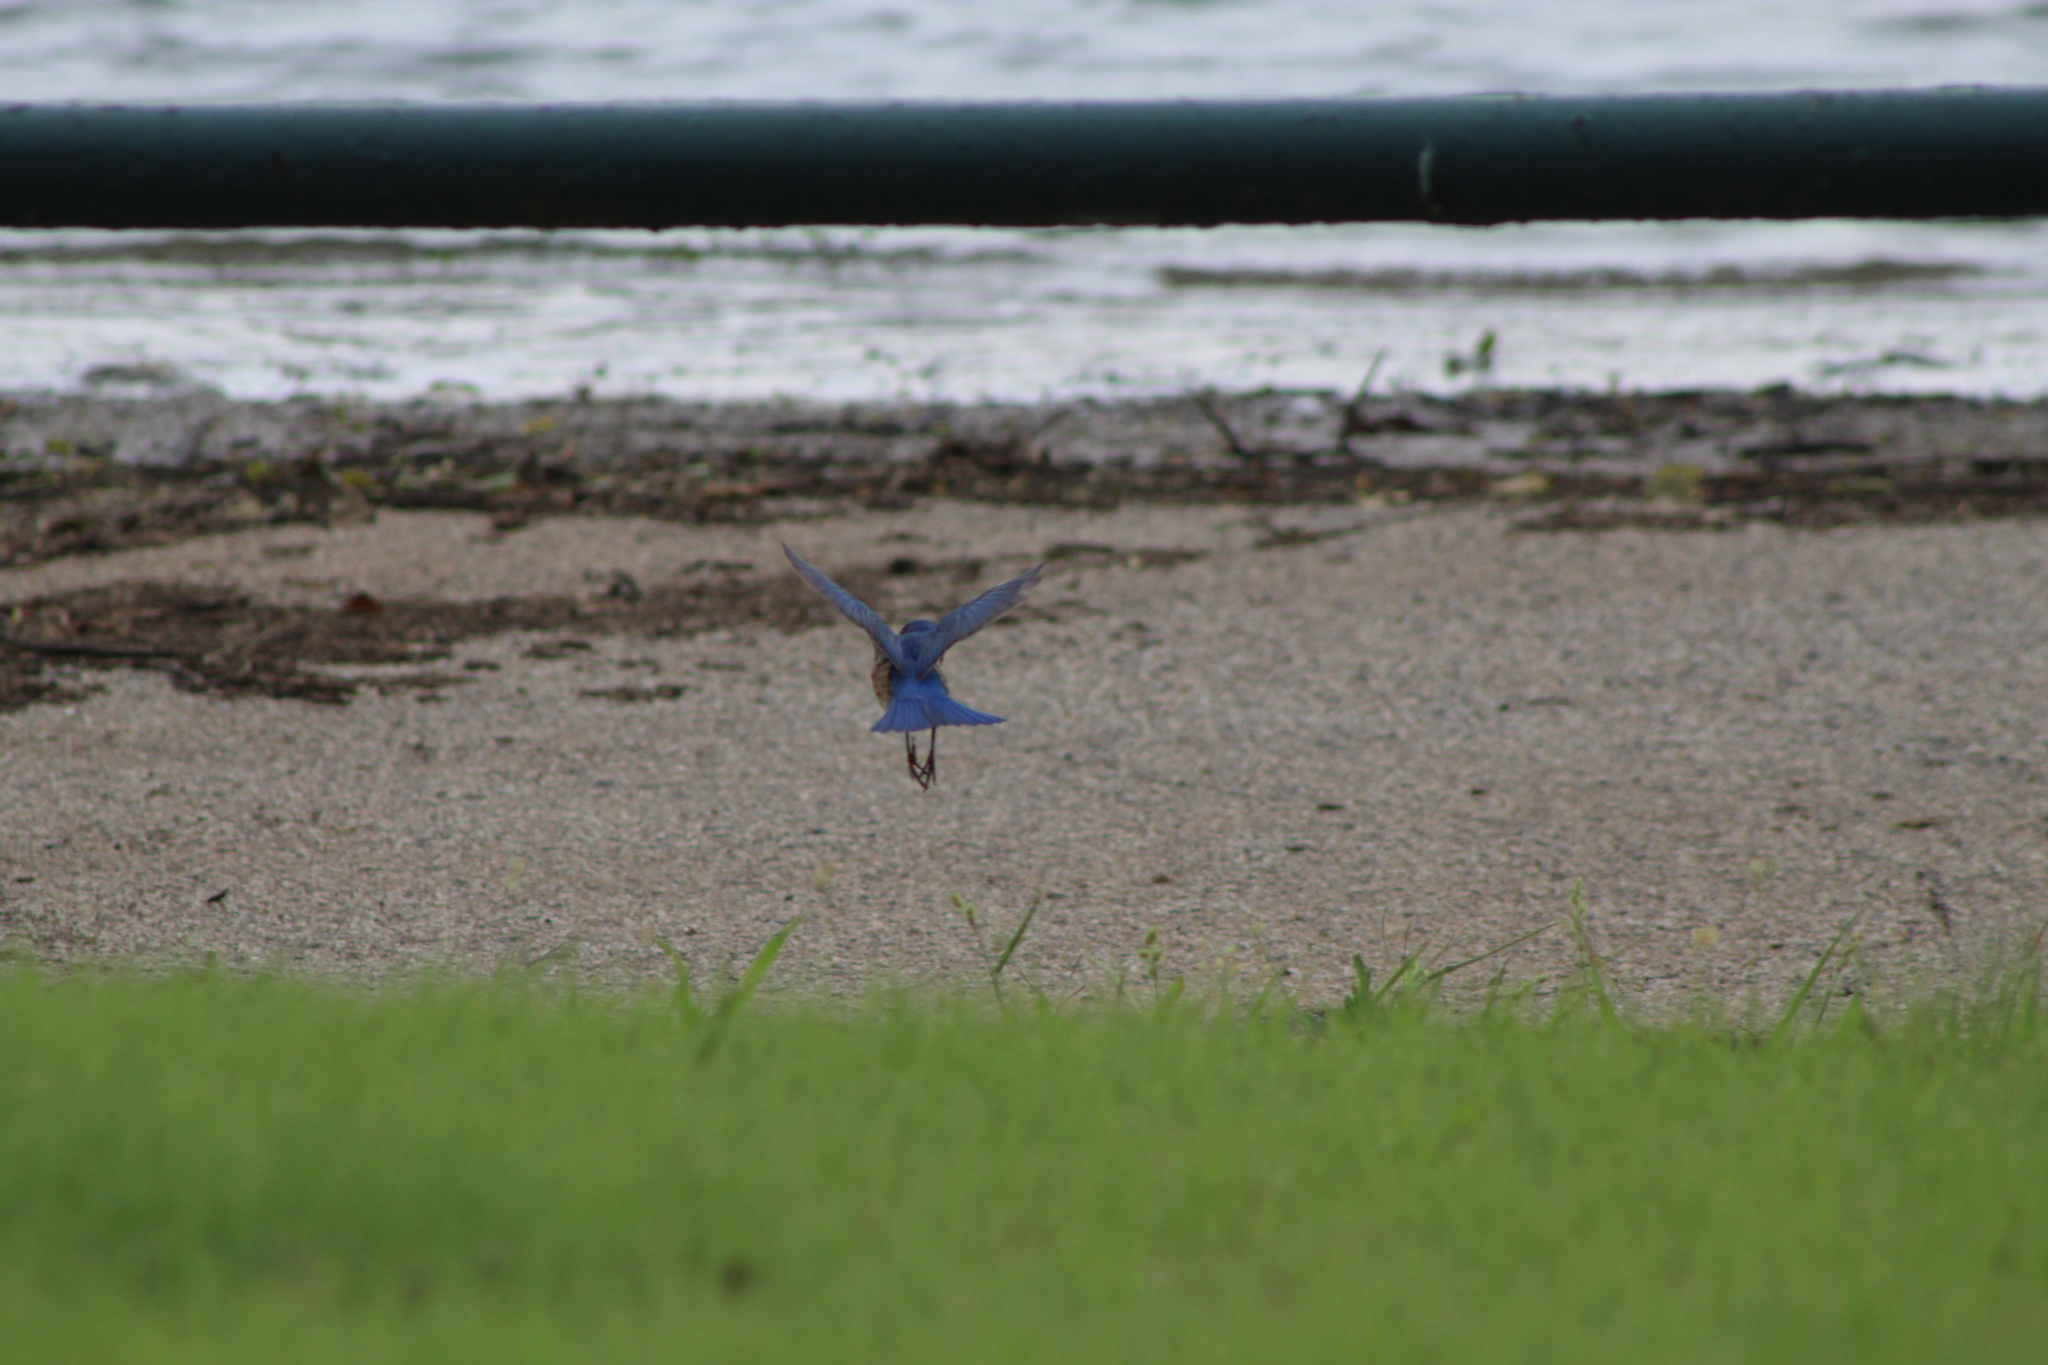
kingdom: Animalia
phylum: Chordata
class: Aves
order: Passeriformes
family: Turdidae
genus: Sialia
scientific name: Sialia sialis
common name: Eastern bluebird
